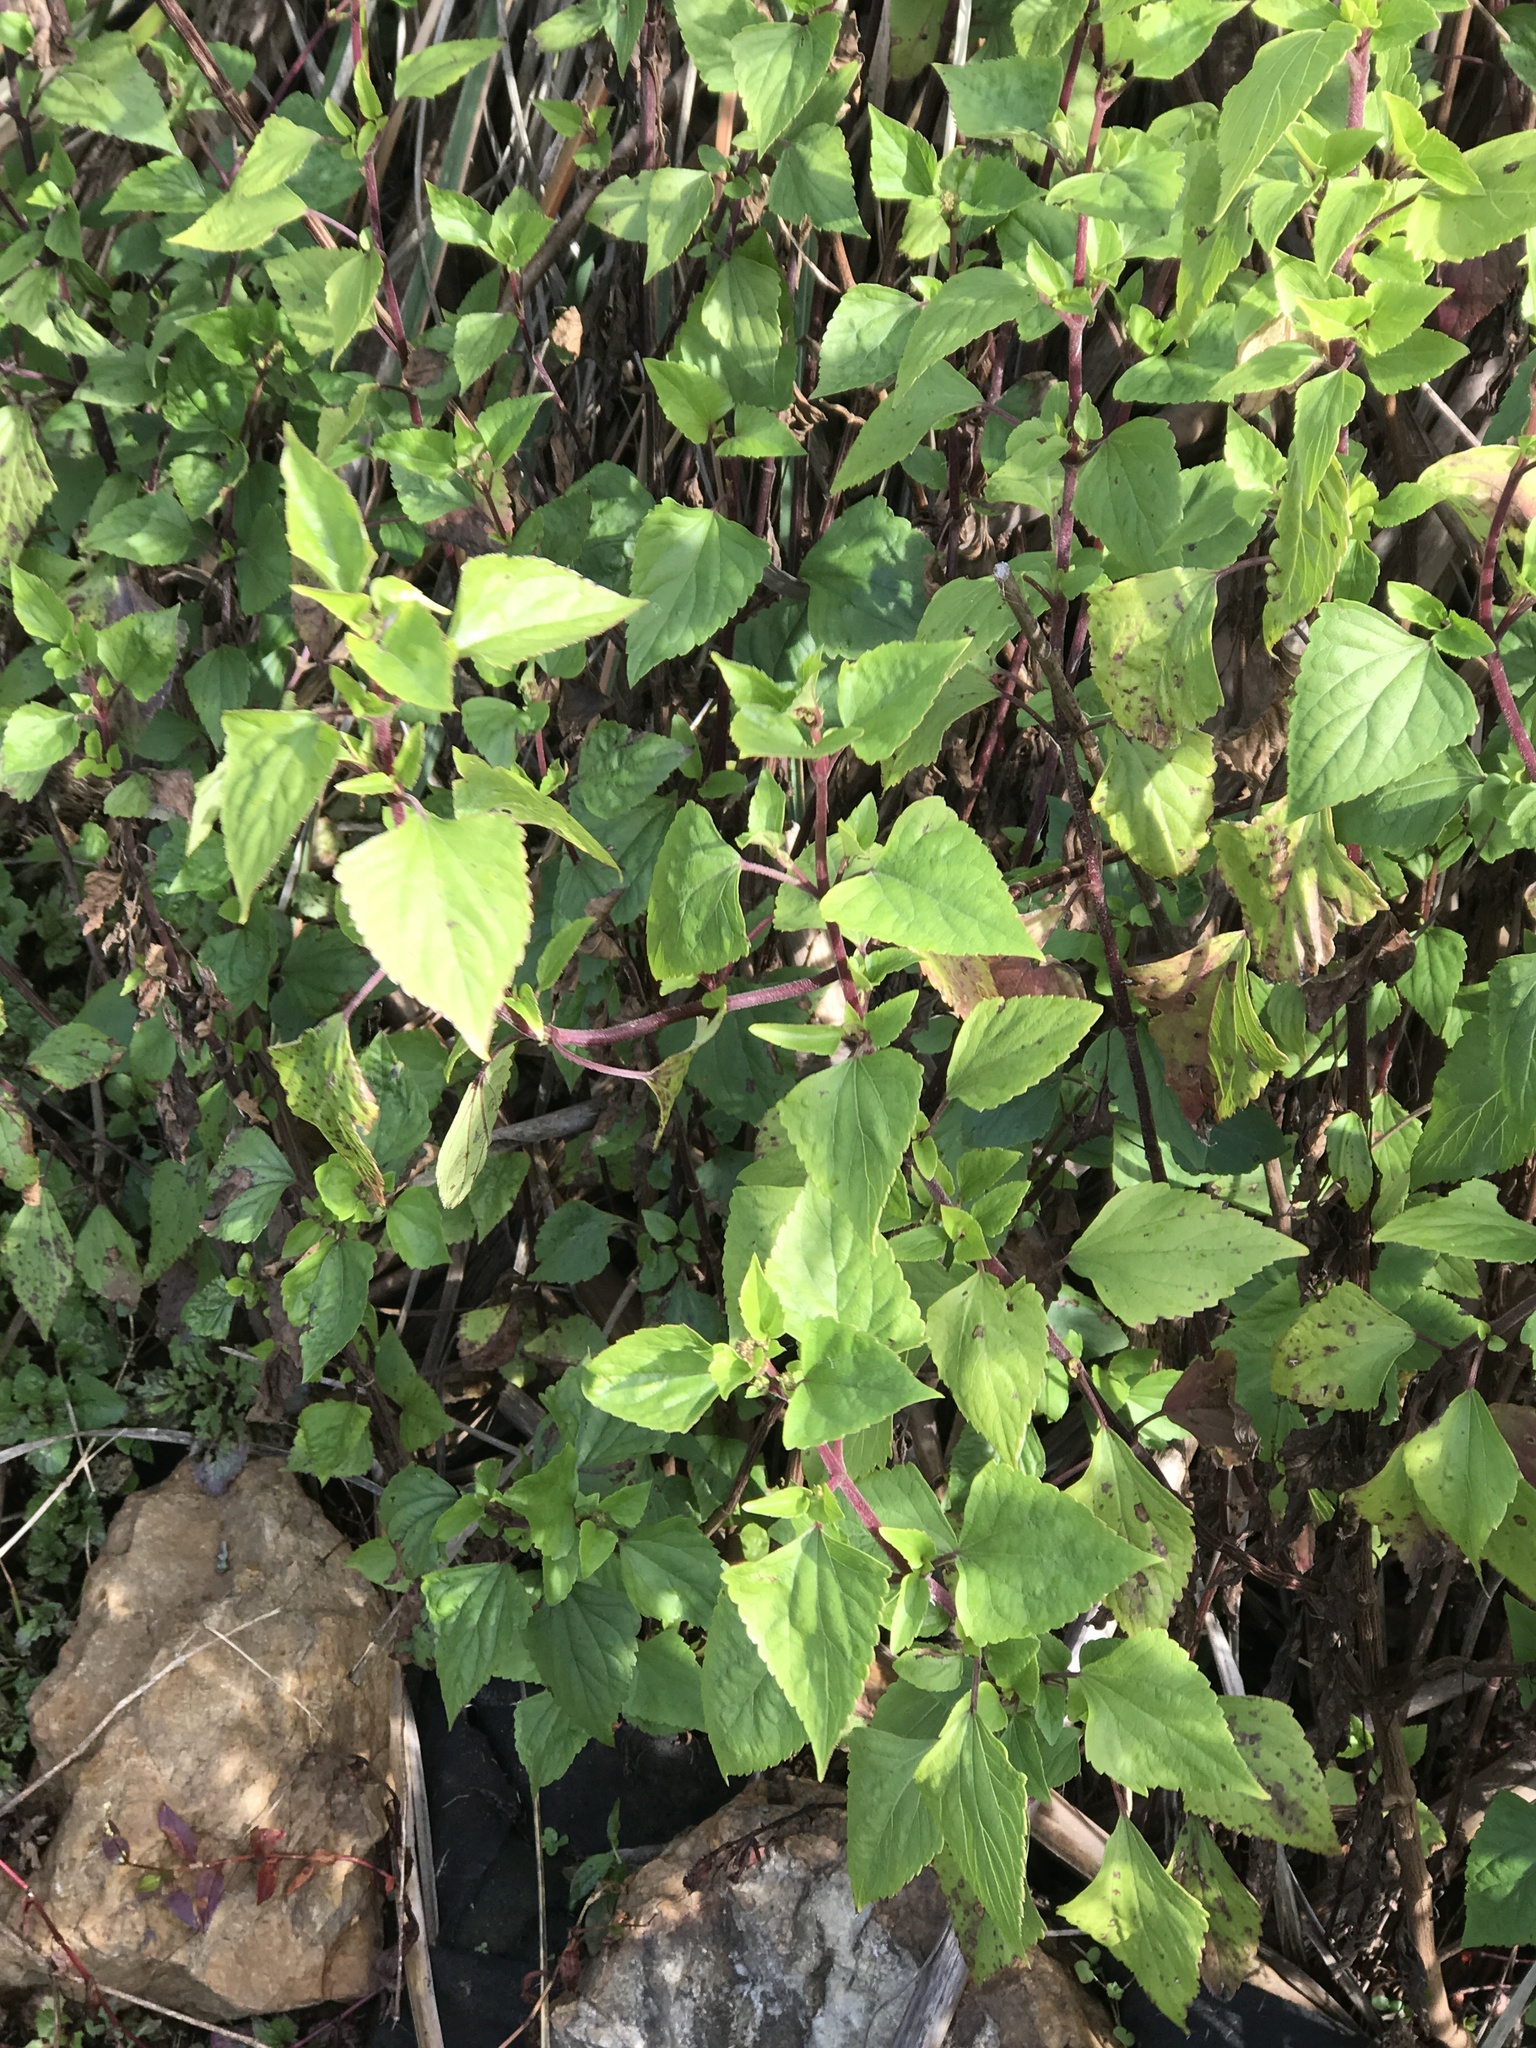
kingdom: Plantae
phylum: Tracheophyta
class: Magnoliopsida
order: Asterales
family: Asteraceae
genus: Ageratina
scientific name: Ageratina adenophora
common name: Sticky snakeroot
